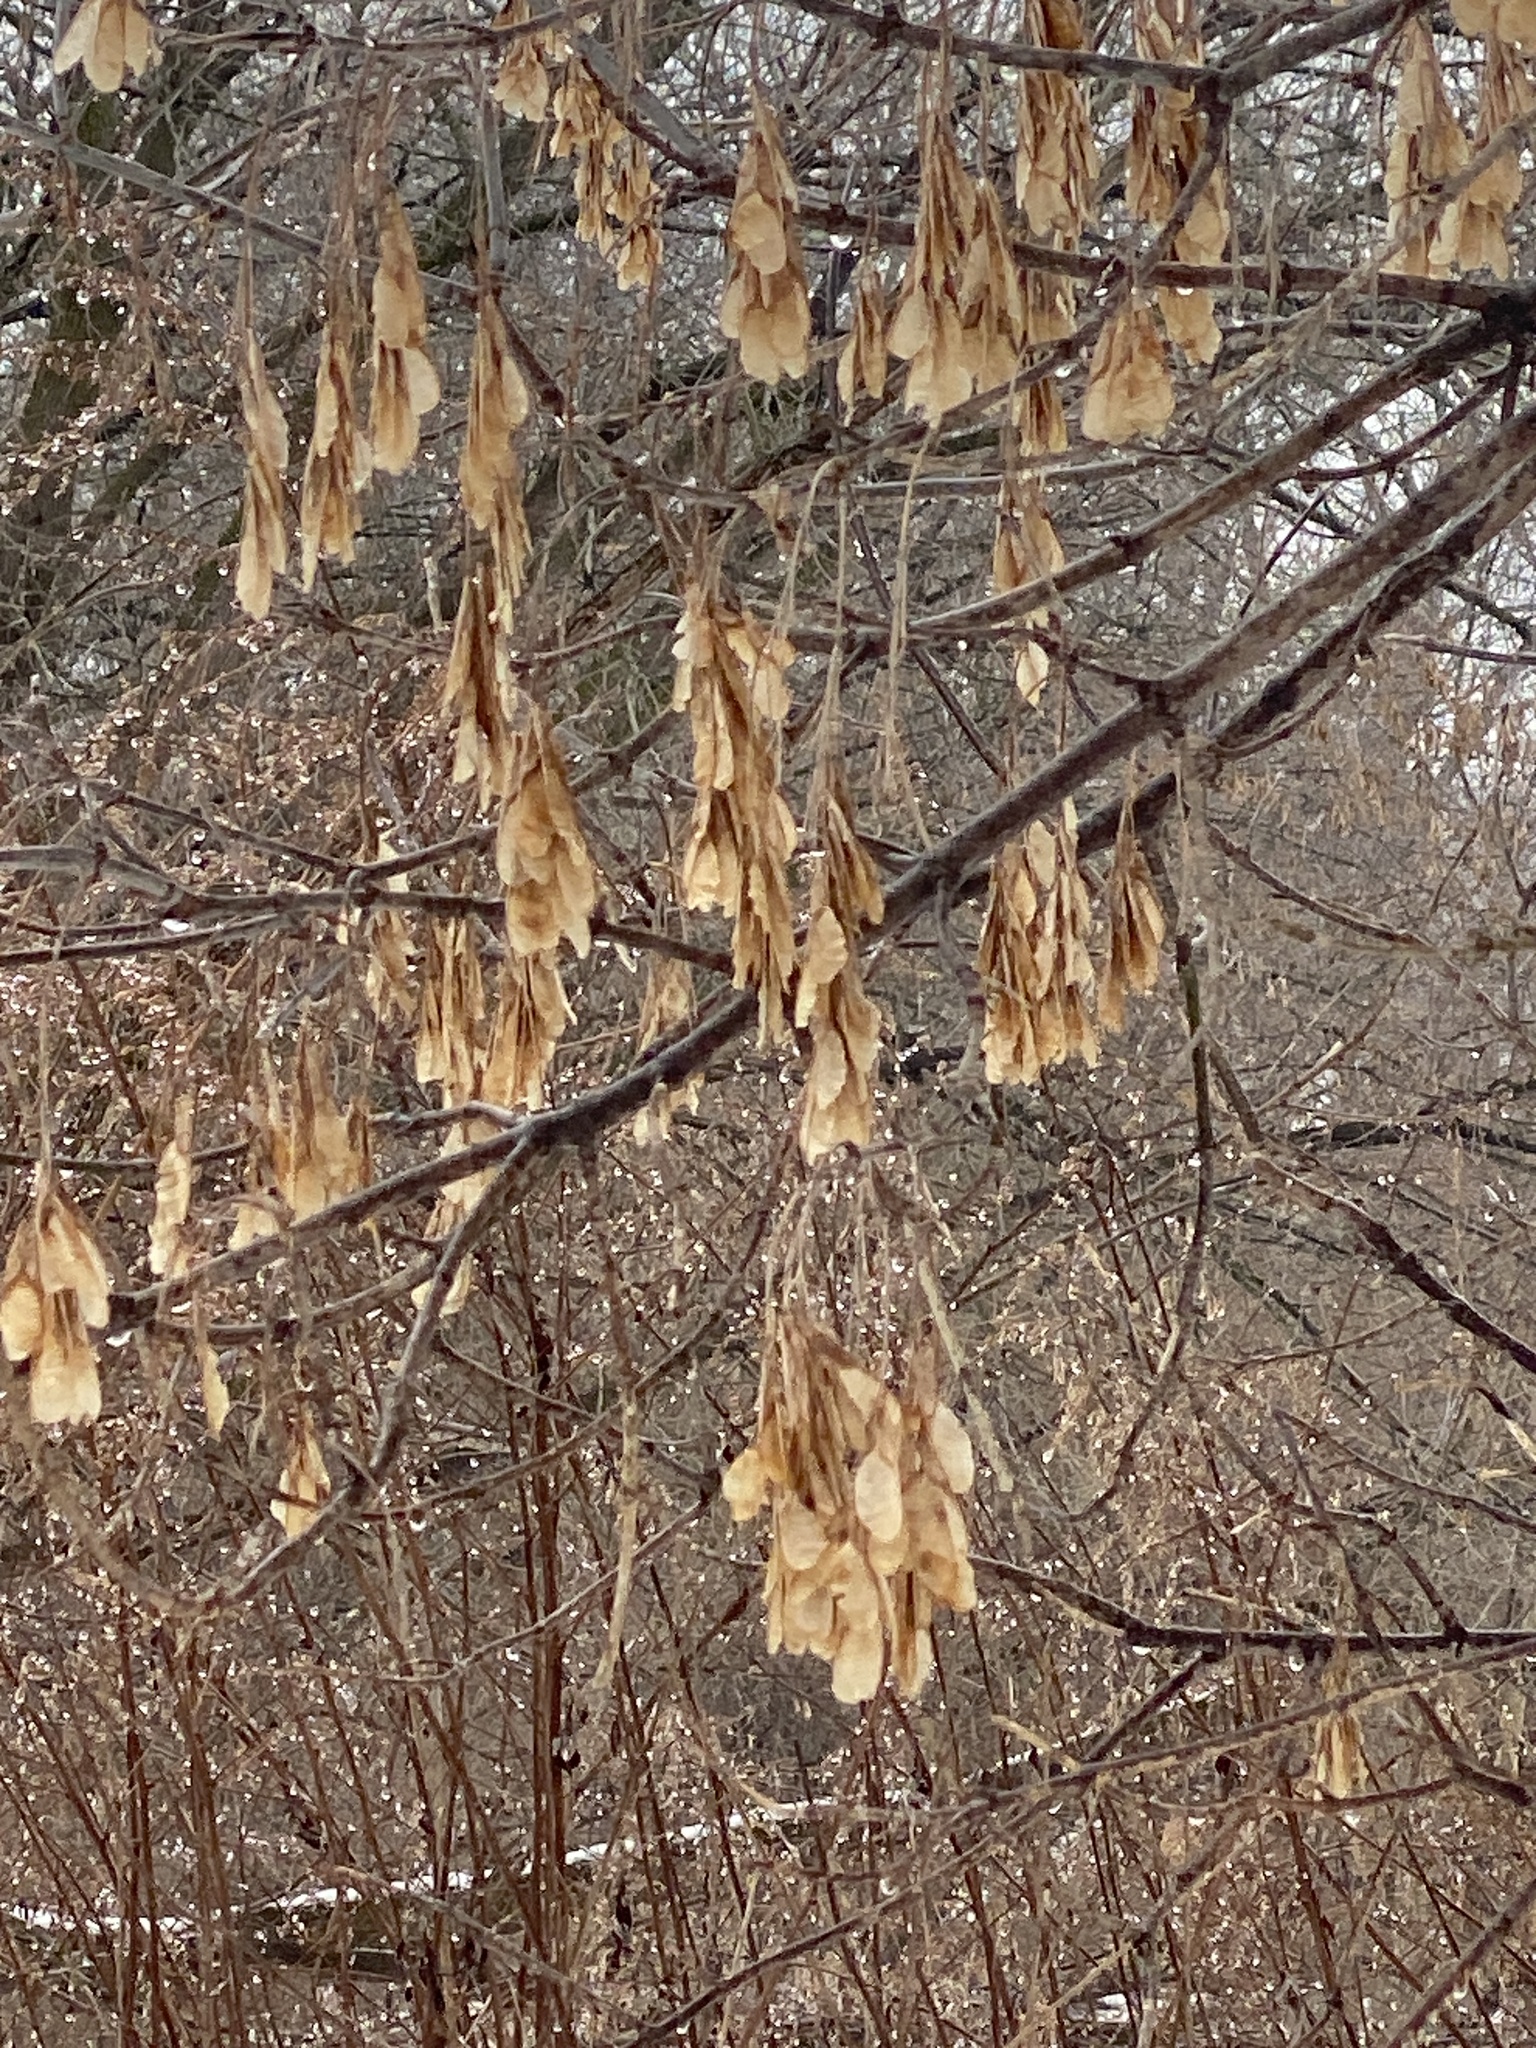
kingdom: Plantae
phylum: Tracheophyta
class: Magnoliopsida
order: Sapindales
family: Sapindaceae
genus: Acer
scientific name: Acer negundo
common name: Ashleaf maple
